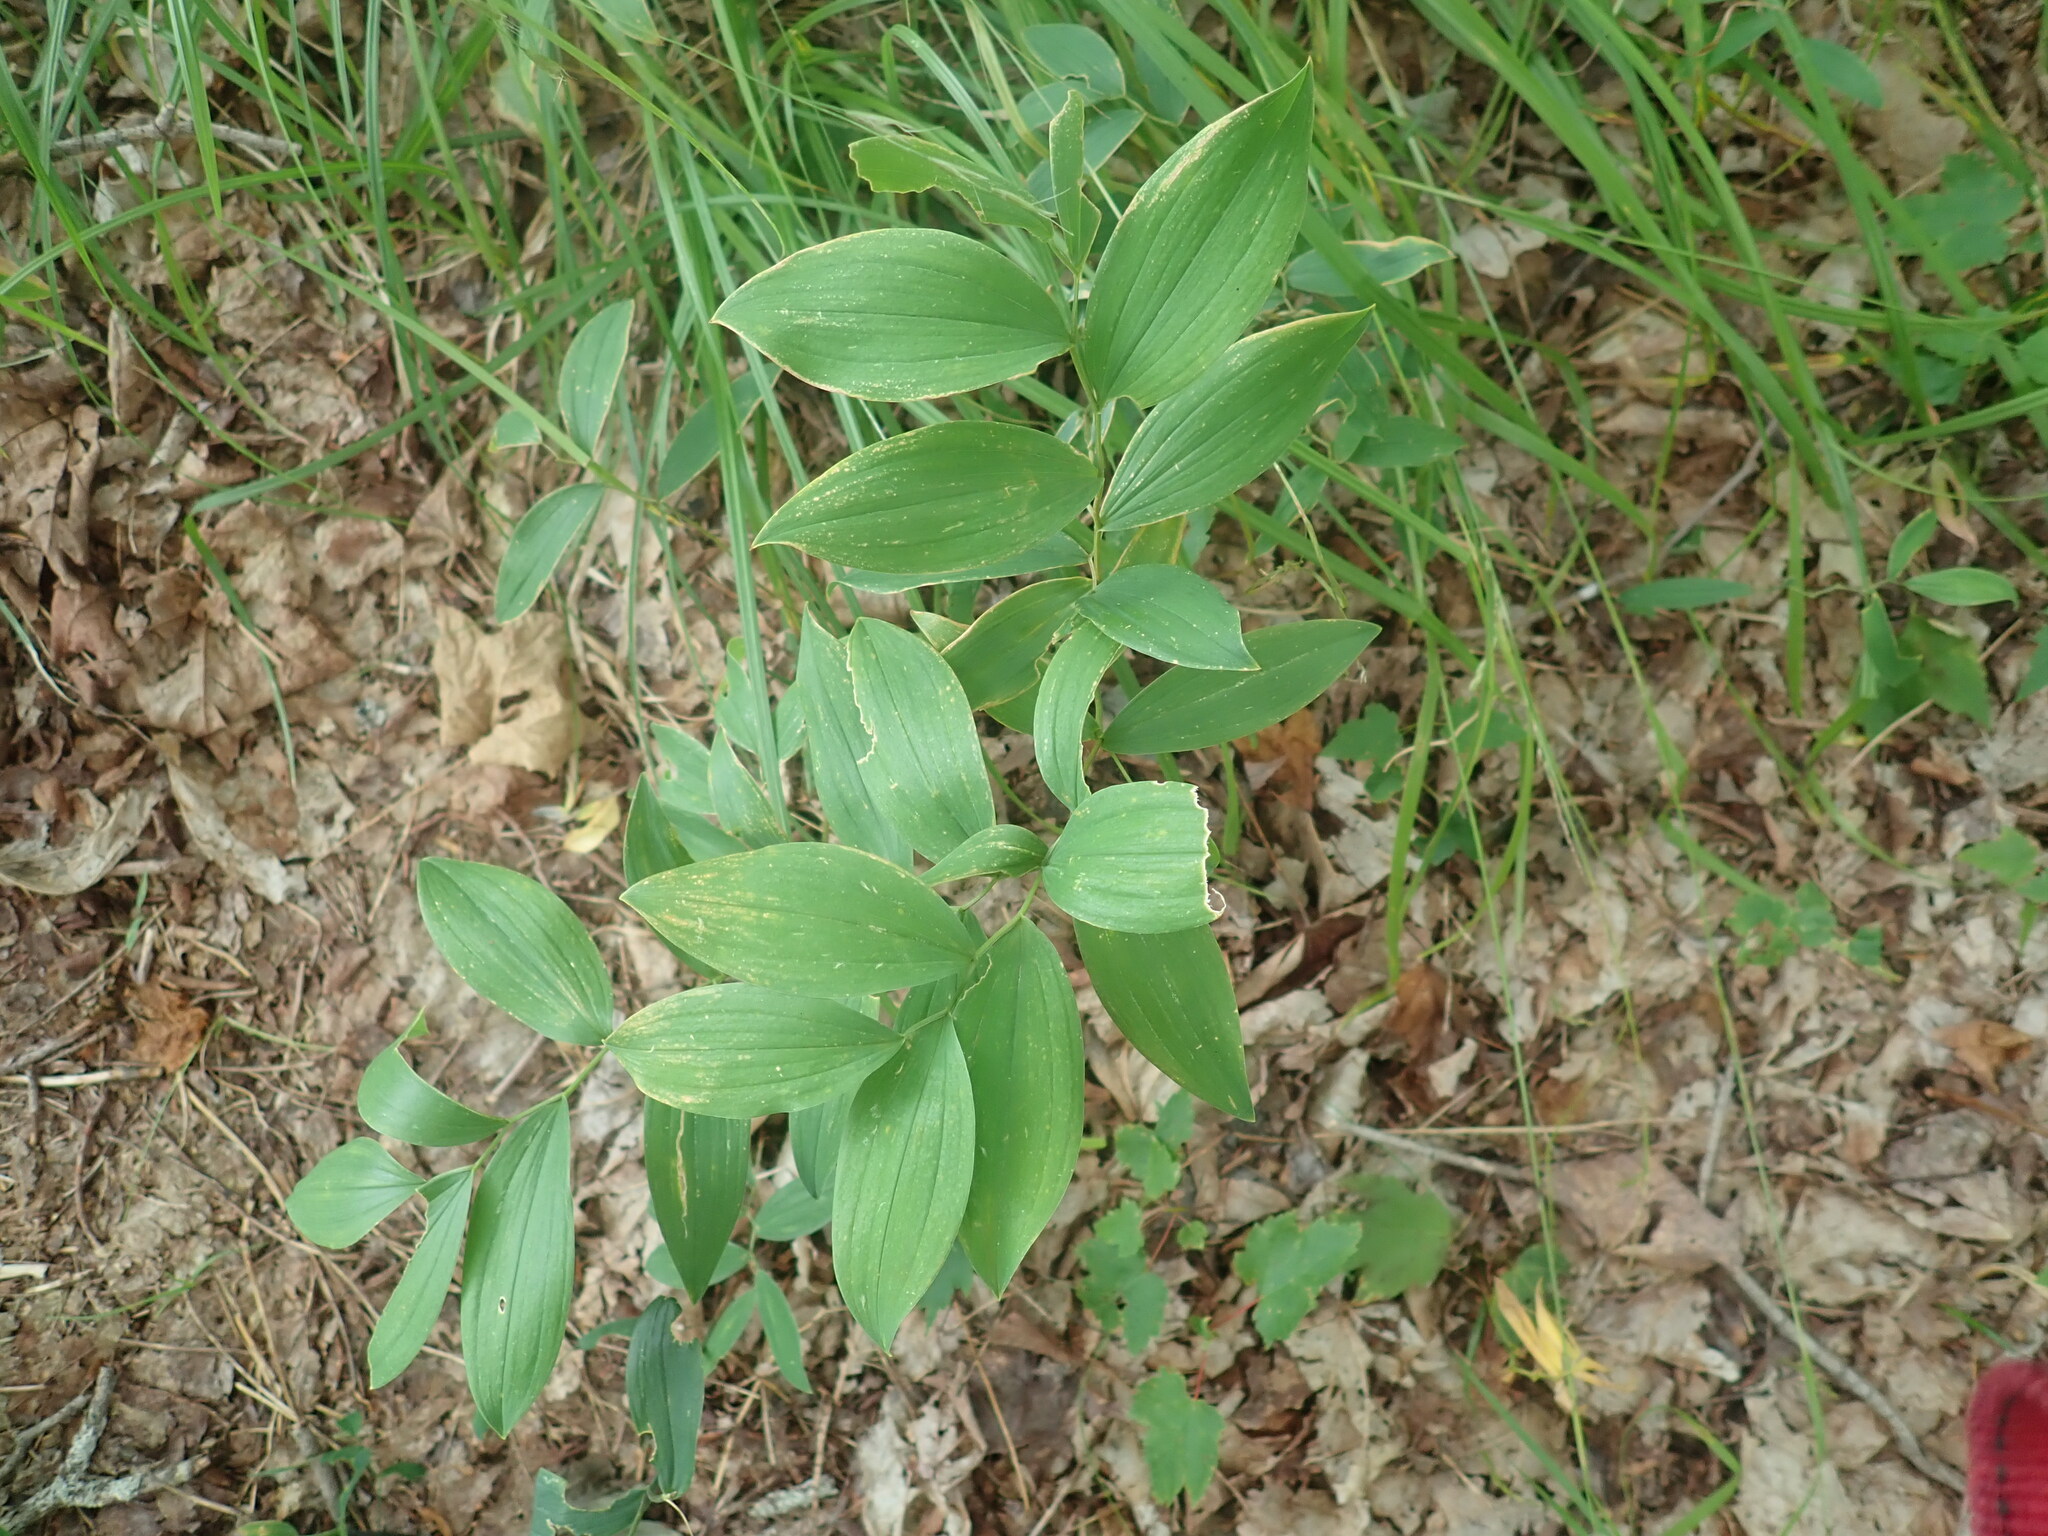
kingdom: Plantae
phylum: Tracheophyta
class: Liliopsida
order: Liliales
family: Colchicaceae
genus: Uvularia
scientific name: Uvularia sessilifolia
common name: Straw-lily
